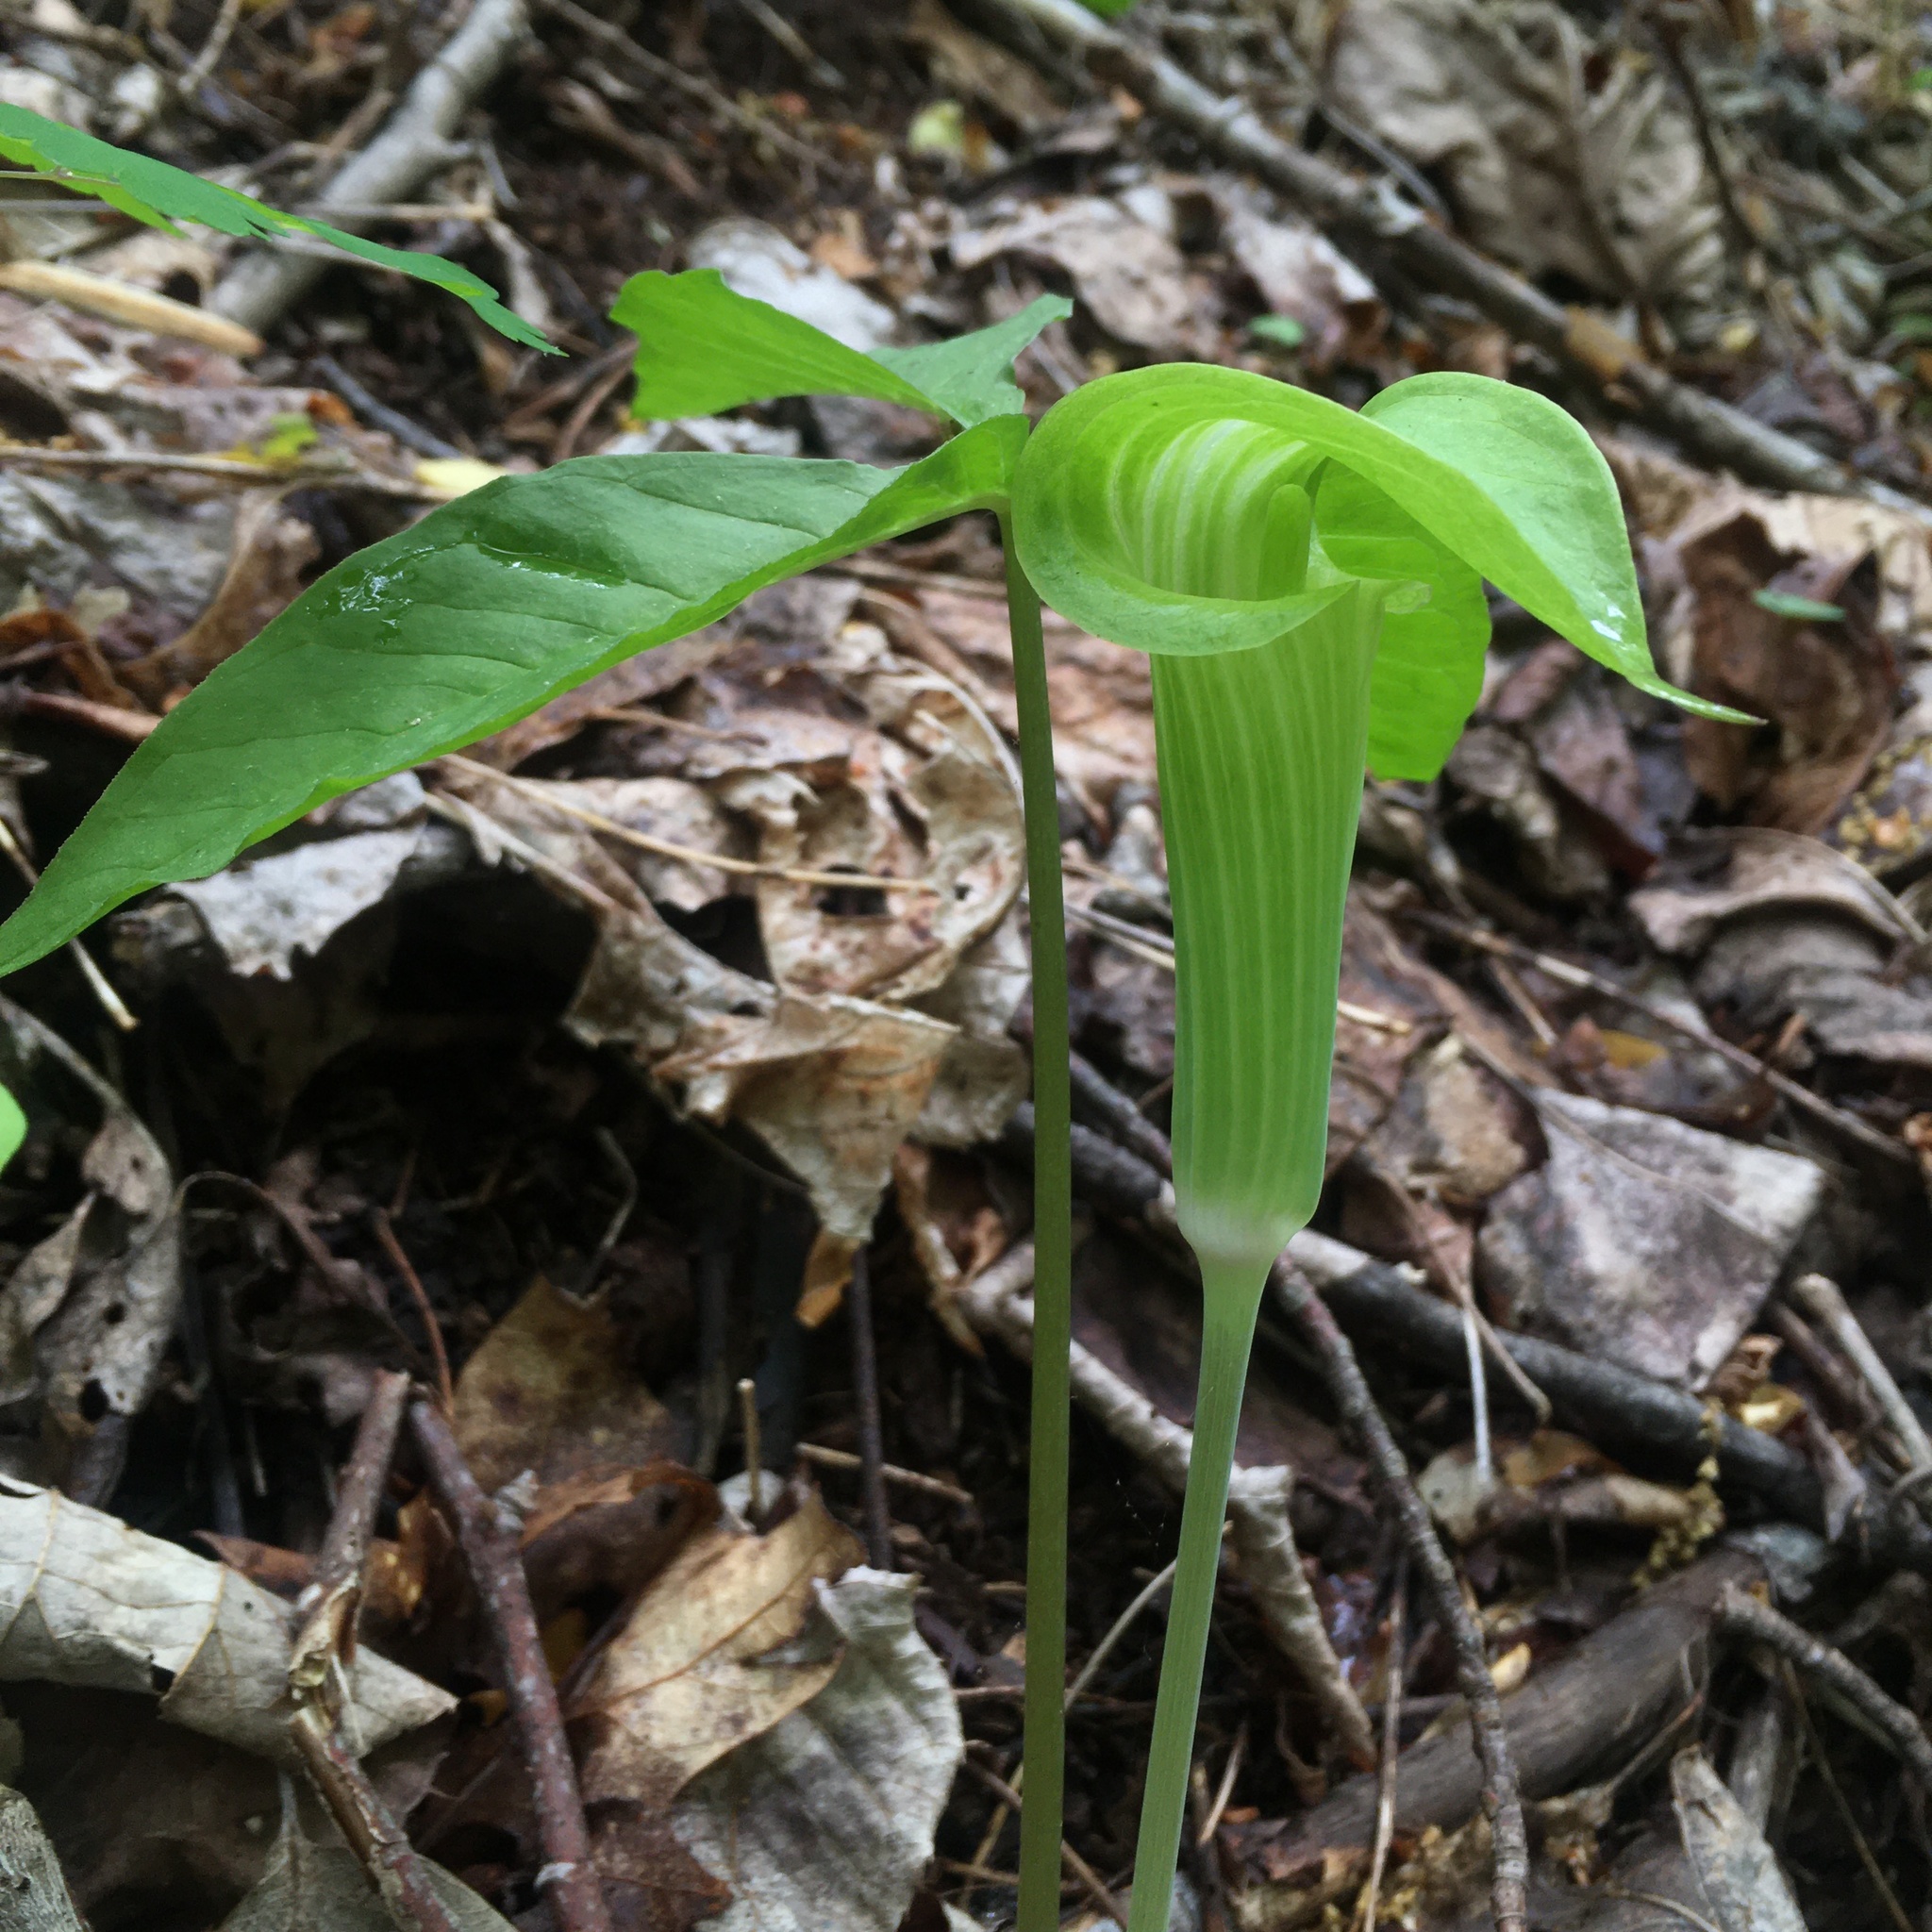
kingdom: Plantae
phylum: Tracheophyta
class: Liliopsida
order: Alismatales
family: Araceae
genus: Arisaema
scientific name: Arisaema triphyllum
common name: Jack-in-the-pulpit
